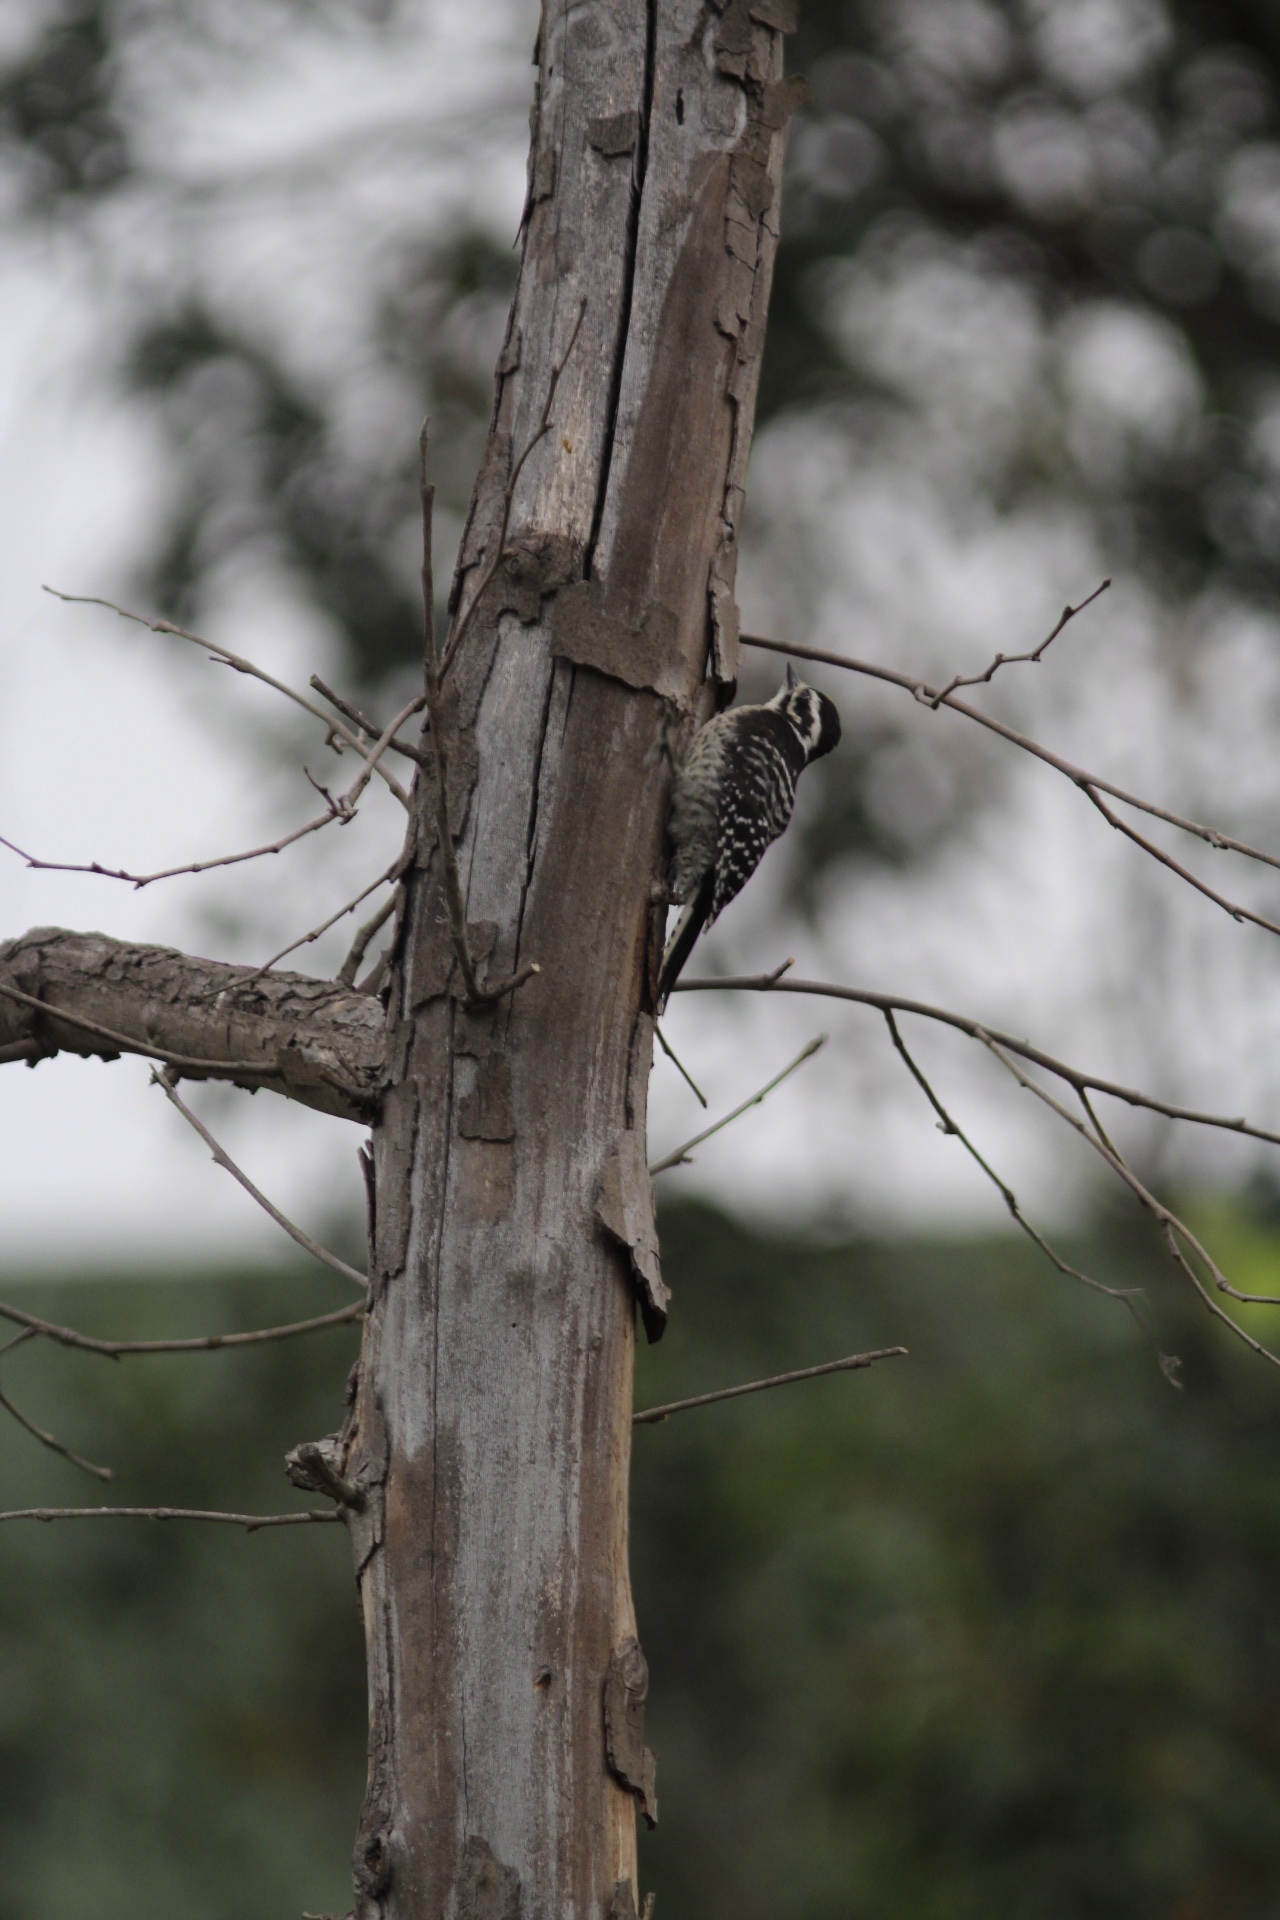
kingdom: Animalia
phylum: Chordata
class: Aves
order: Piciformes
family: Picidae
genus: Dryobates
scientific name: Dryobates nuttallii
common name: Nuttall's woodpecker
